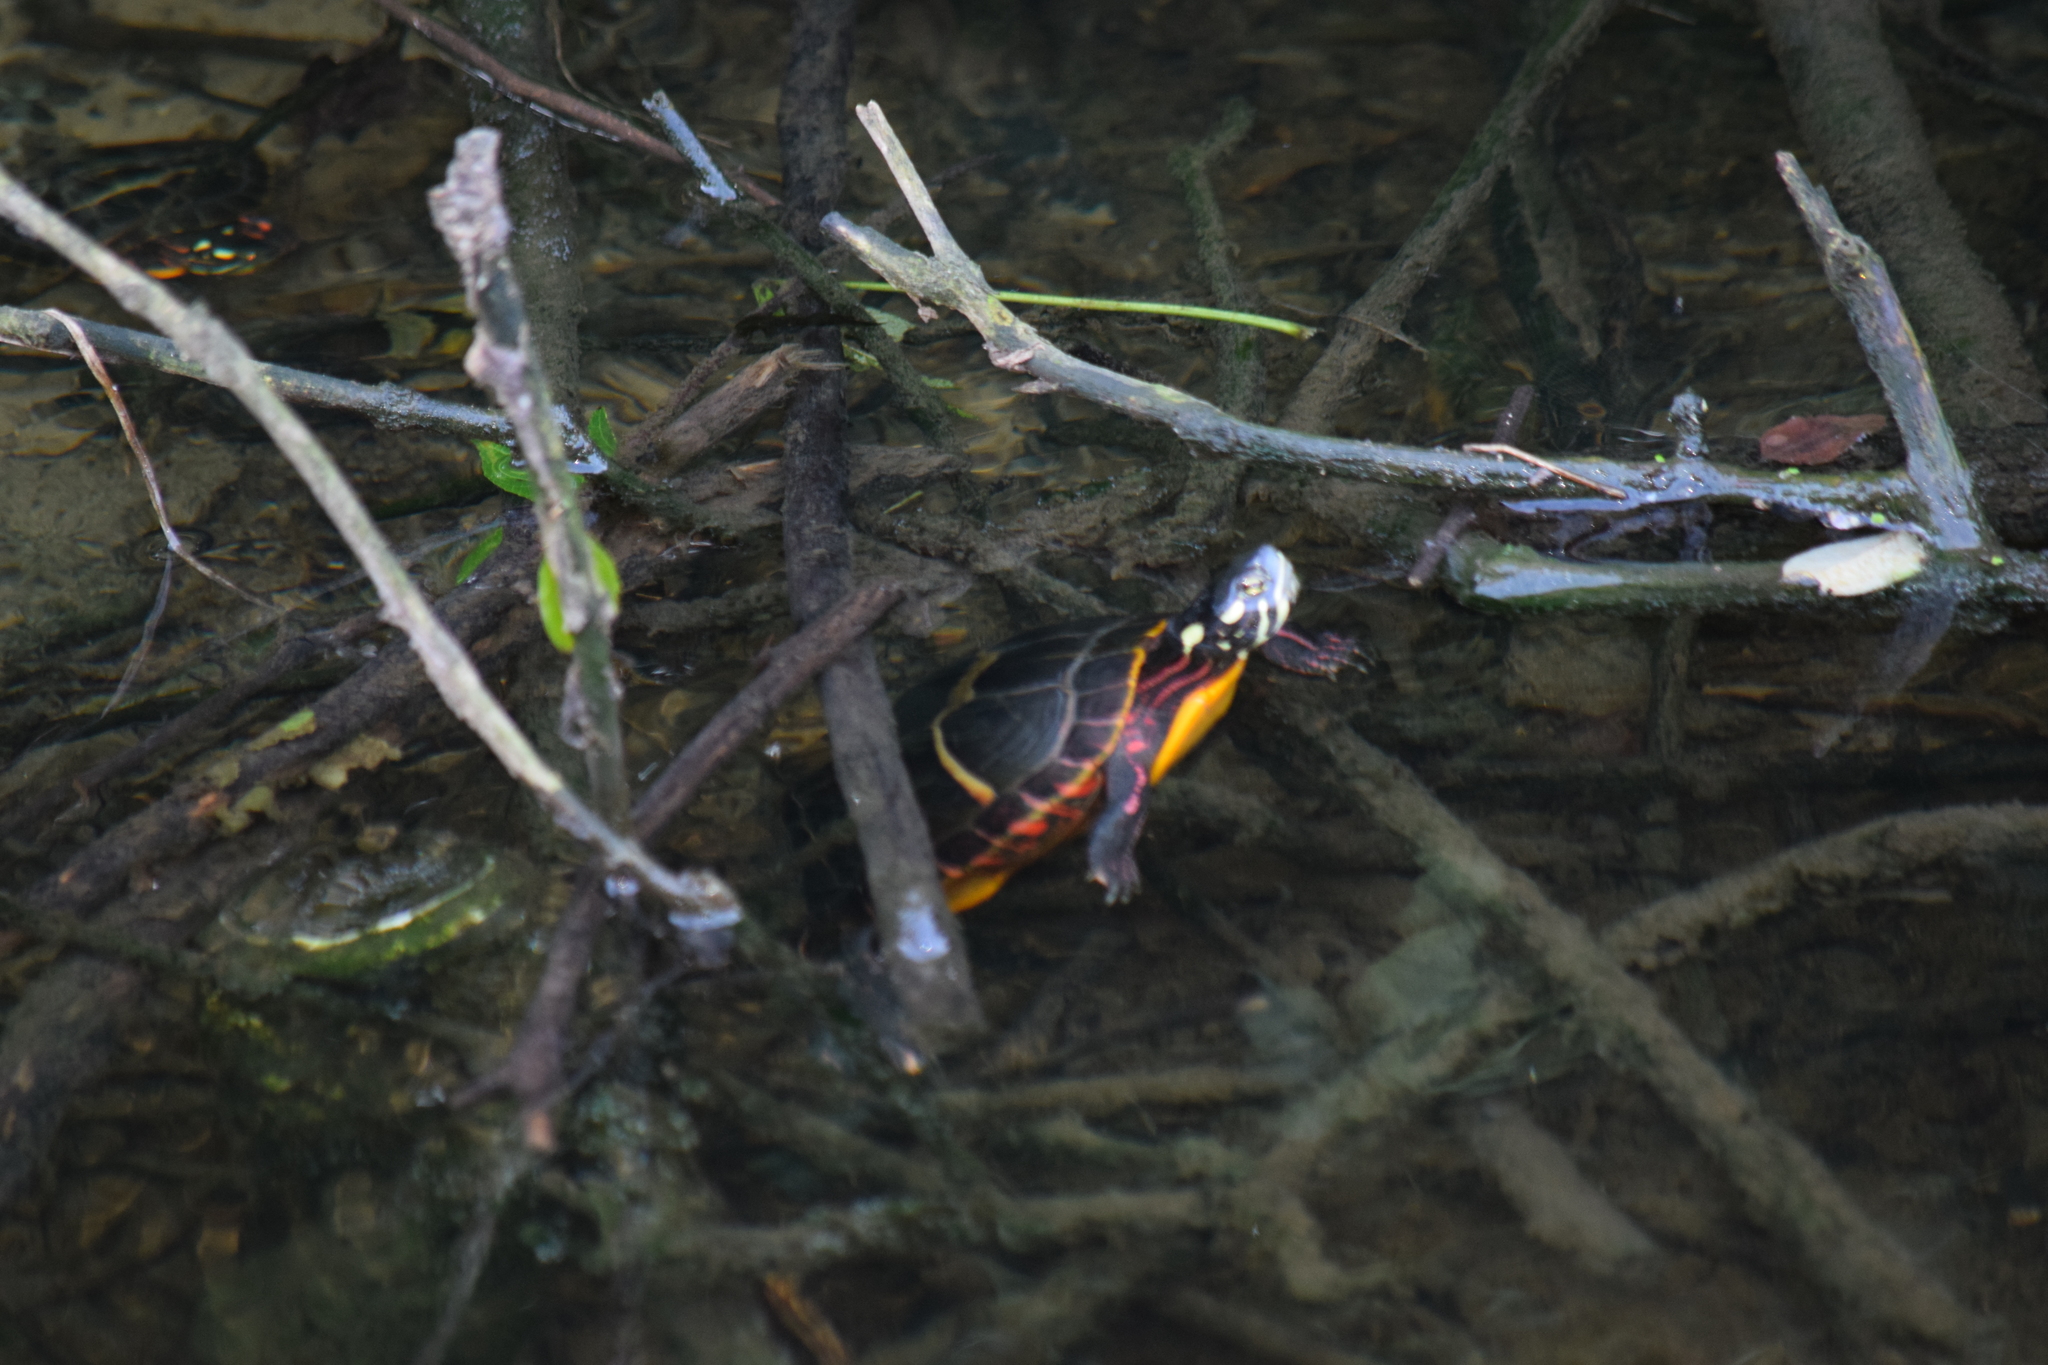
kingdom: Animalia
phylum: Chordata
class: Testudines
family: Emydidae
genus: Chrysemys
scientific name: Chrysemys picta
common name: Painted turtle
